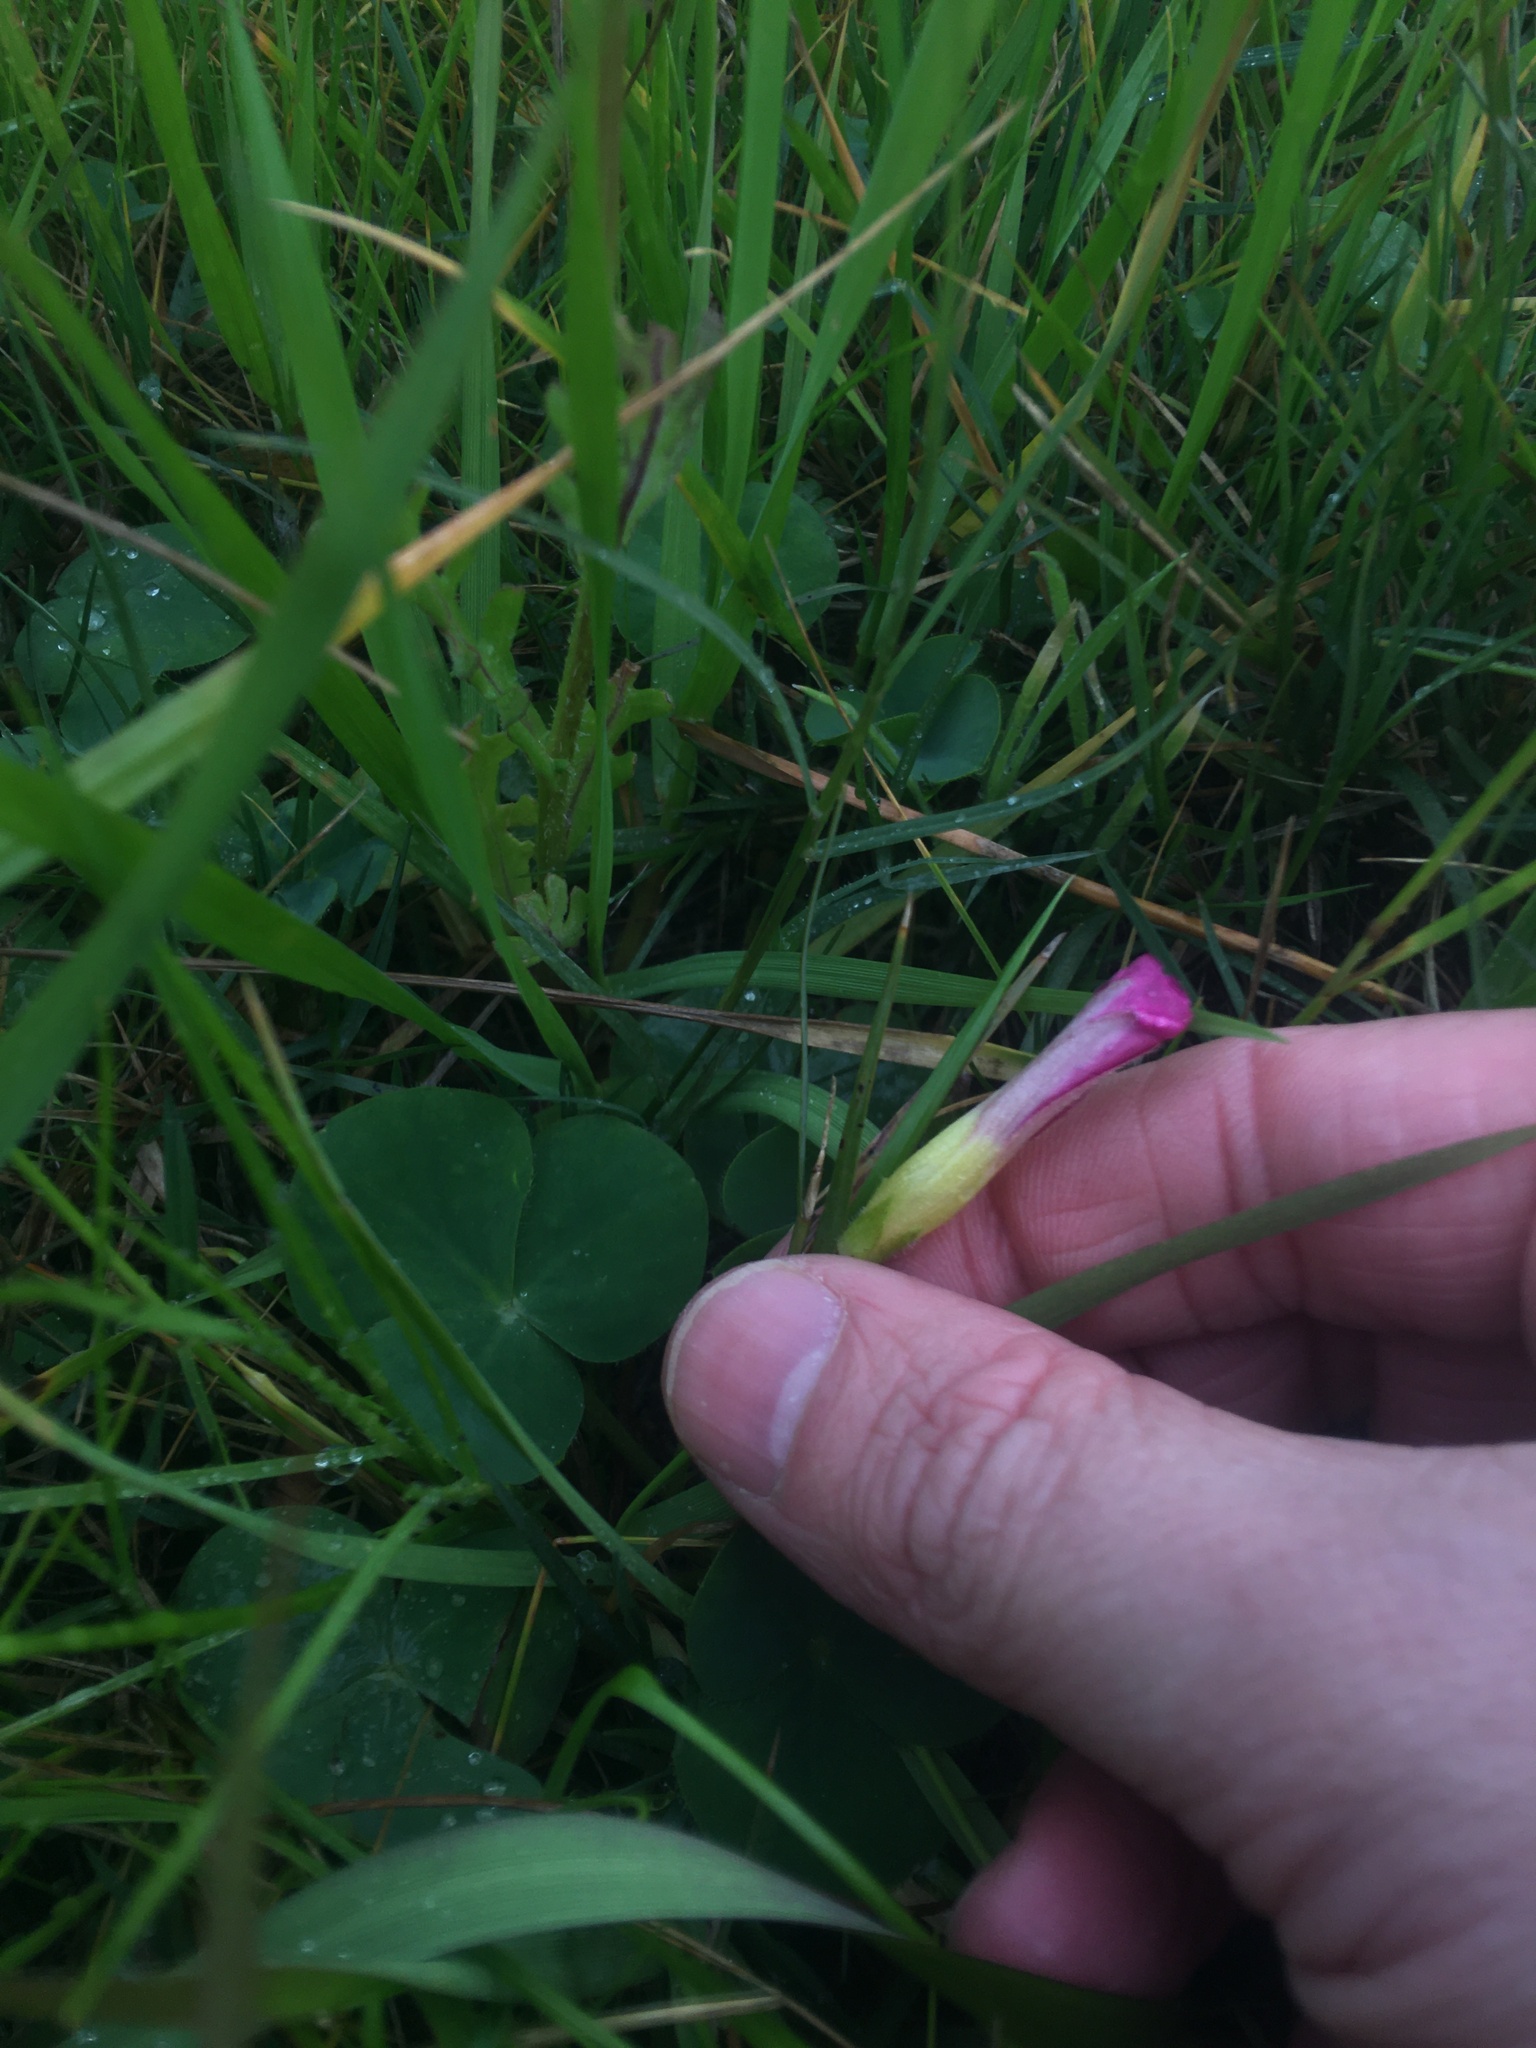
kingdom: Plantae
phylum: Tracheophyta
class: Magnoliopsida
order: Oxalidales
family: Oxalidaceae
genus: Oxalis
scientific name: Oxalis purpurea
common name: Purple woodsorrel
